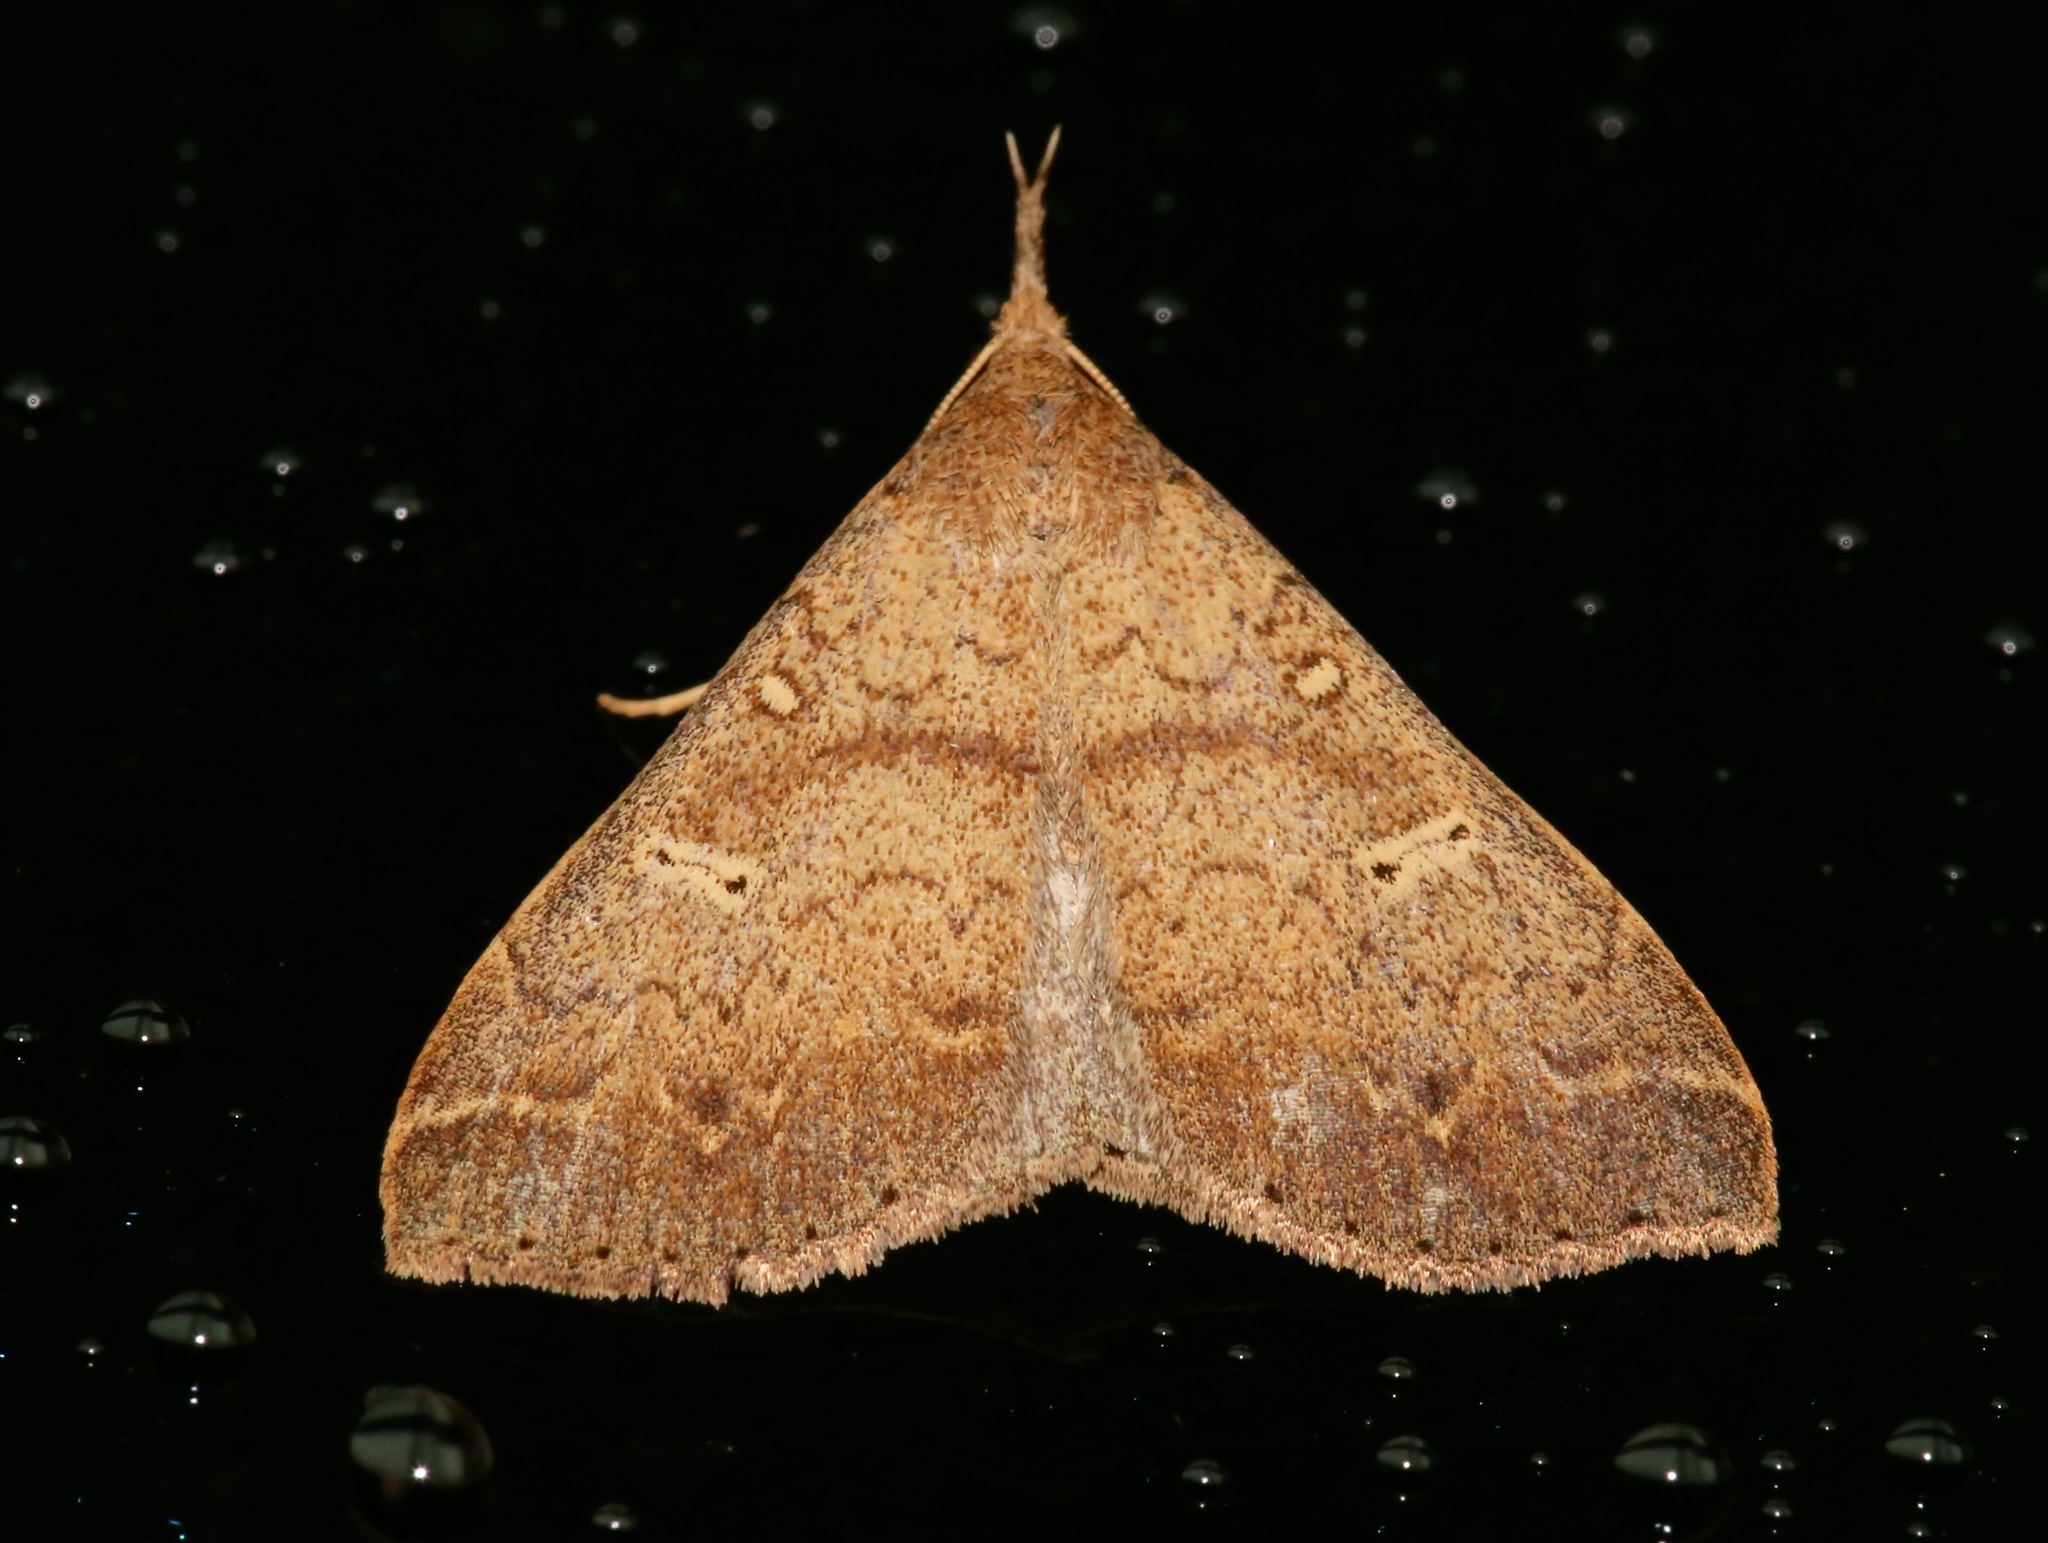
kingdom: Animalia
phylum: Arthropoda
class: Insecta
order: Lepidoptera
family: Erebidae
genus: Renia
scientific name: Renia discoloralis
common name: Discolored renia moth
